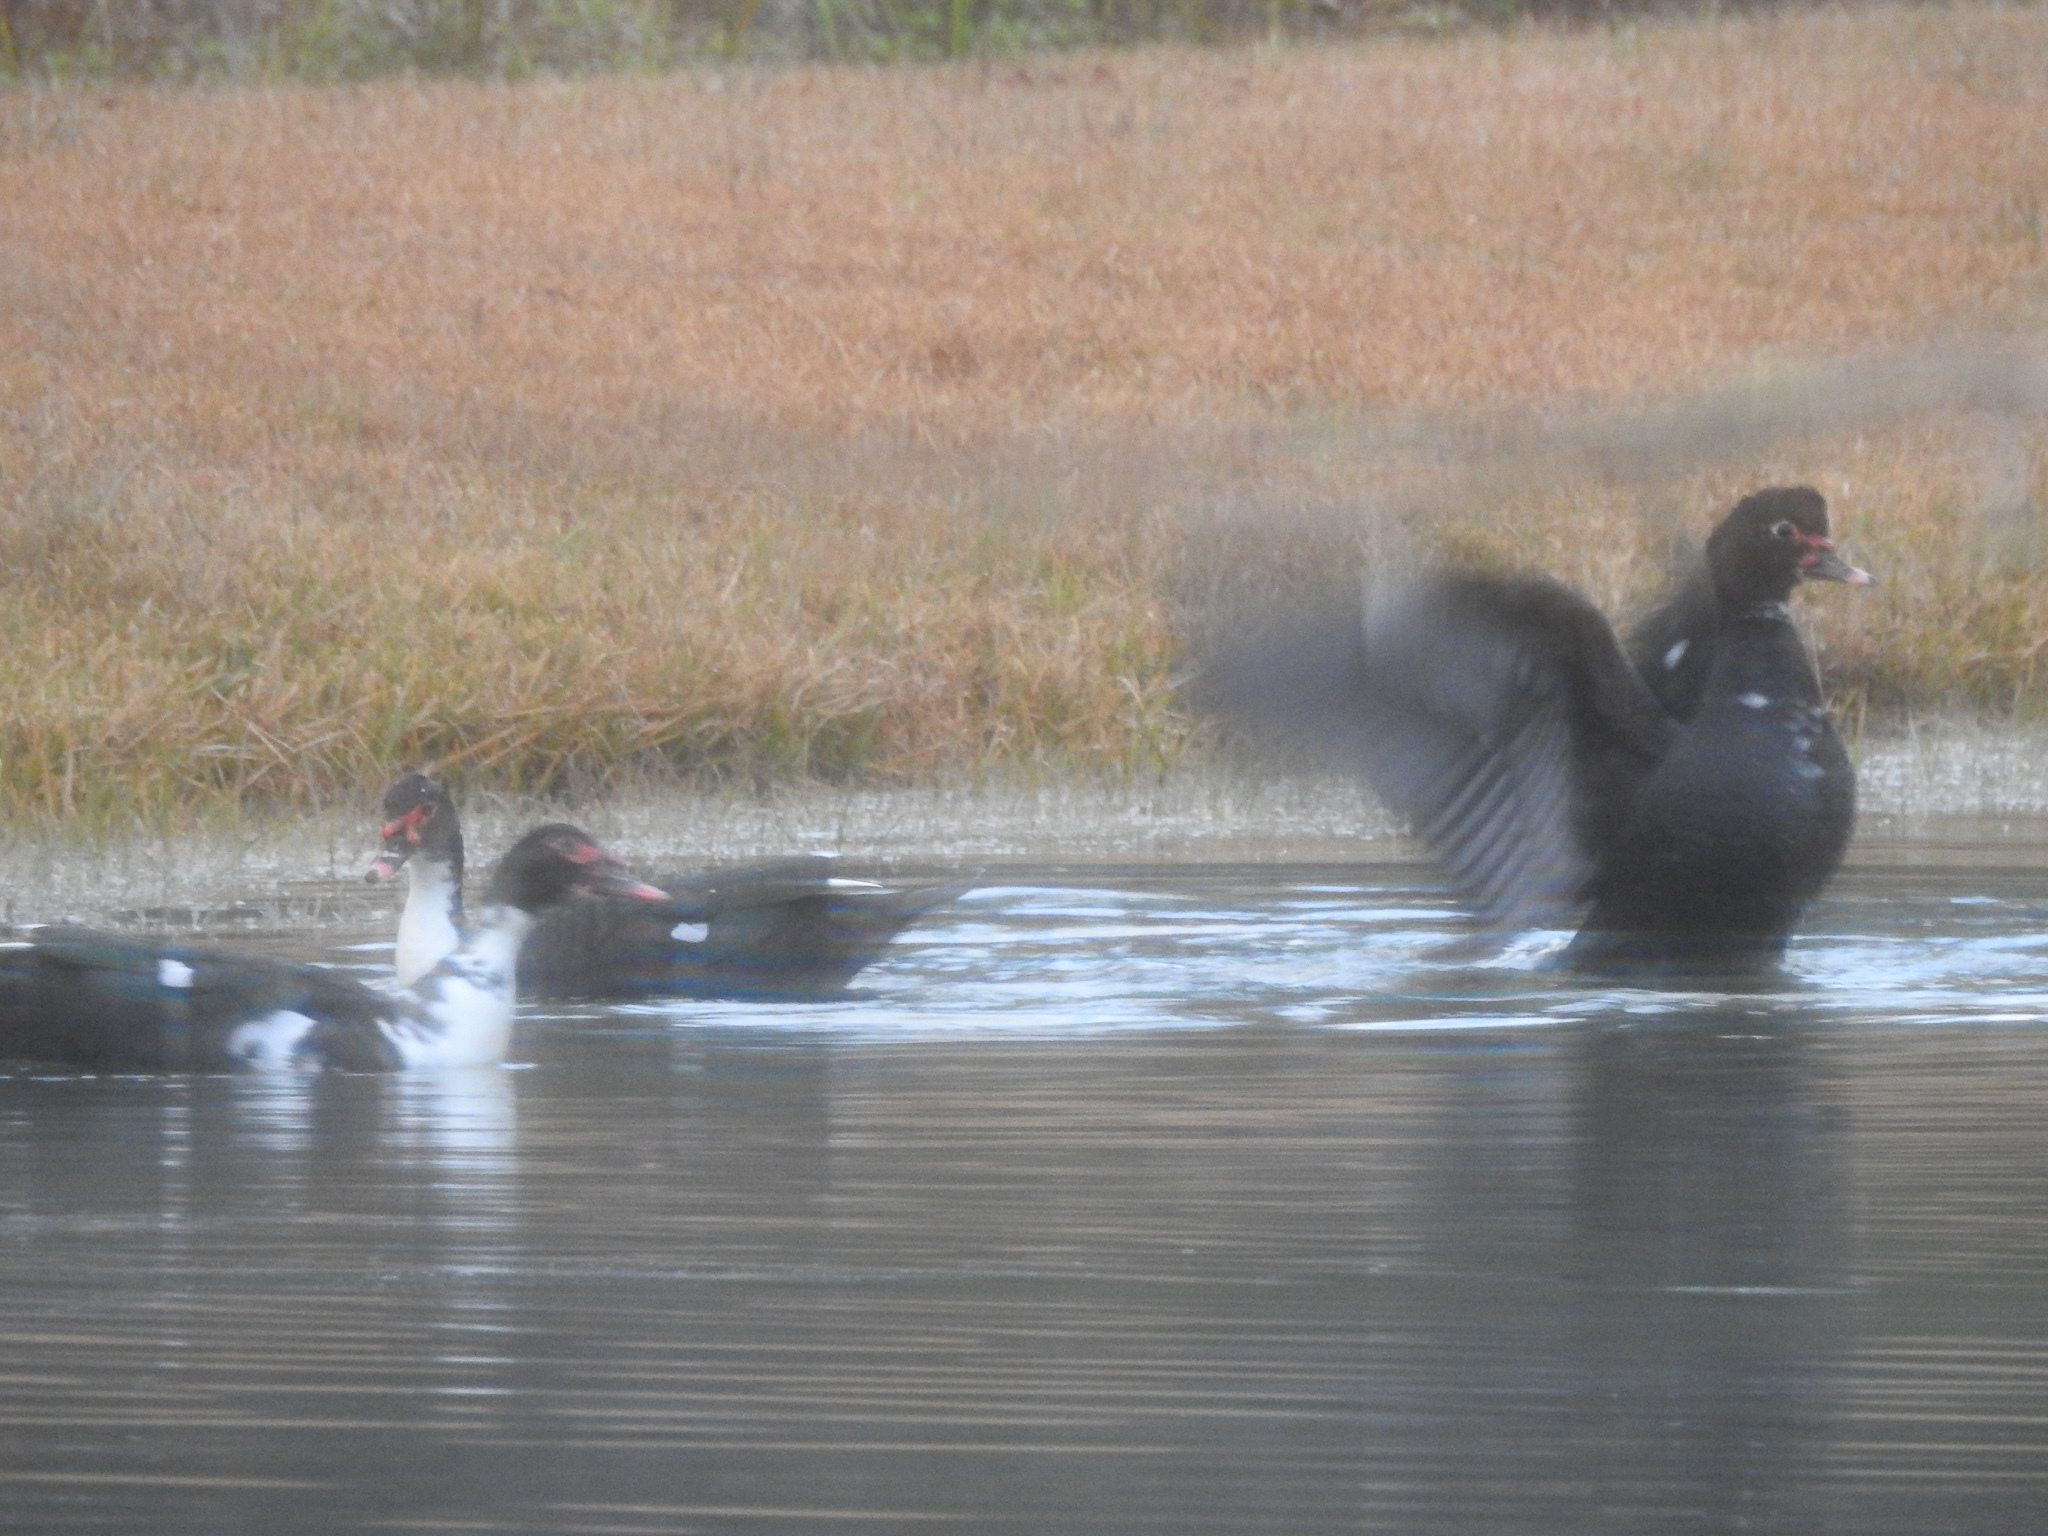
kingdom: Animalia
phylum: Chordata
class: Aves
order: Anseriformes
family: Anatidae
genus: Cairina
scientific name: Cairina moschata
